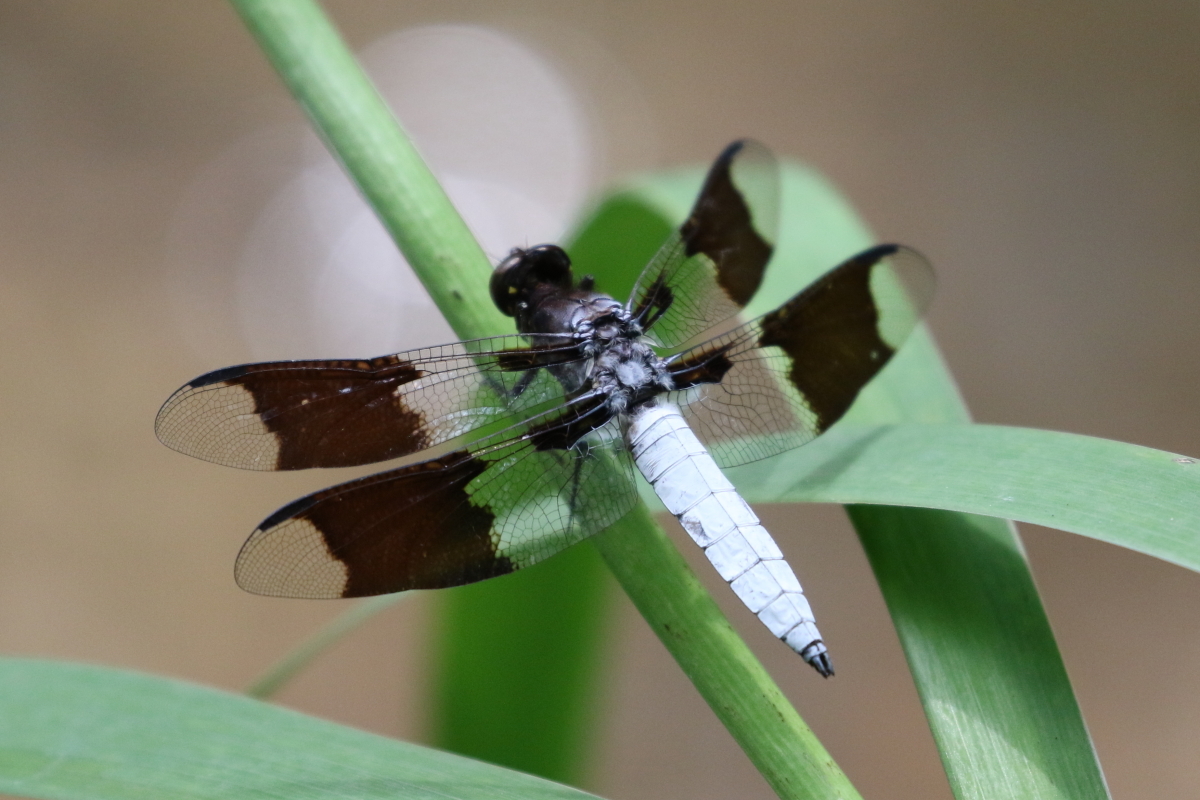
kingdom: Animalia
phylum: Arthropoda
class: Insecta
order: Odonata
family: Libellulidae
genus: Plathemis
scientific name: Plathemis lydia
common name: Common whitetail
